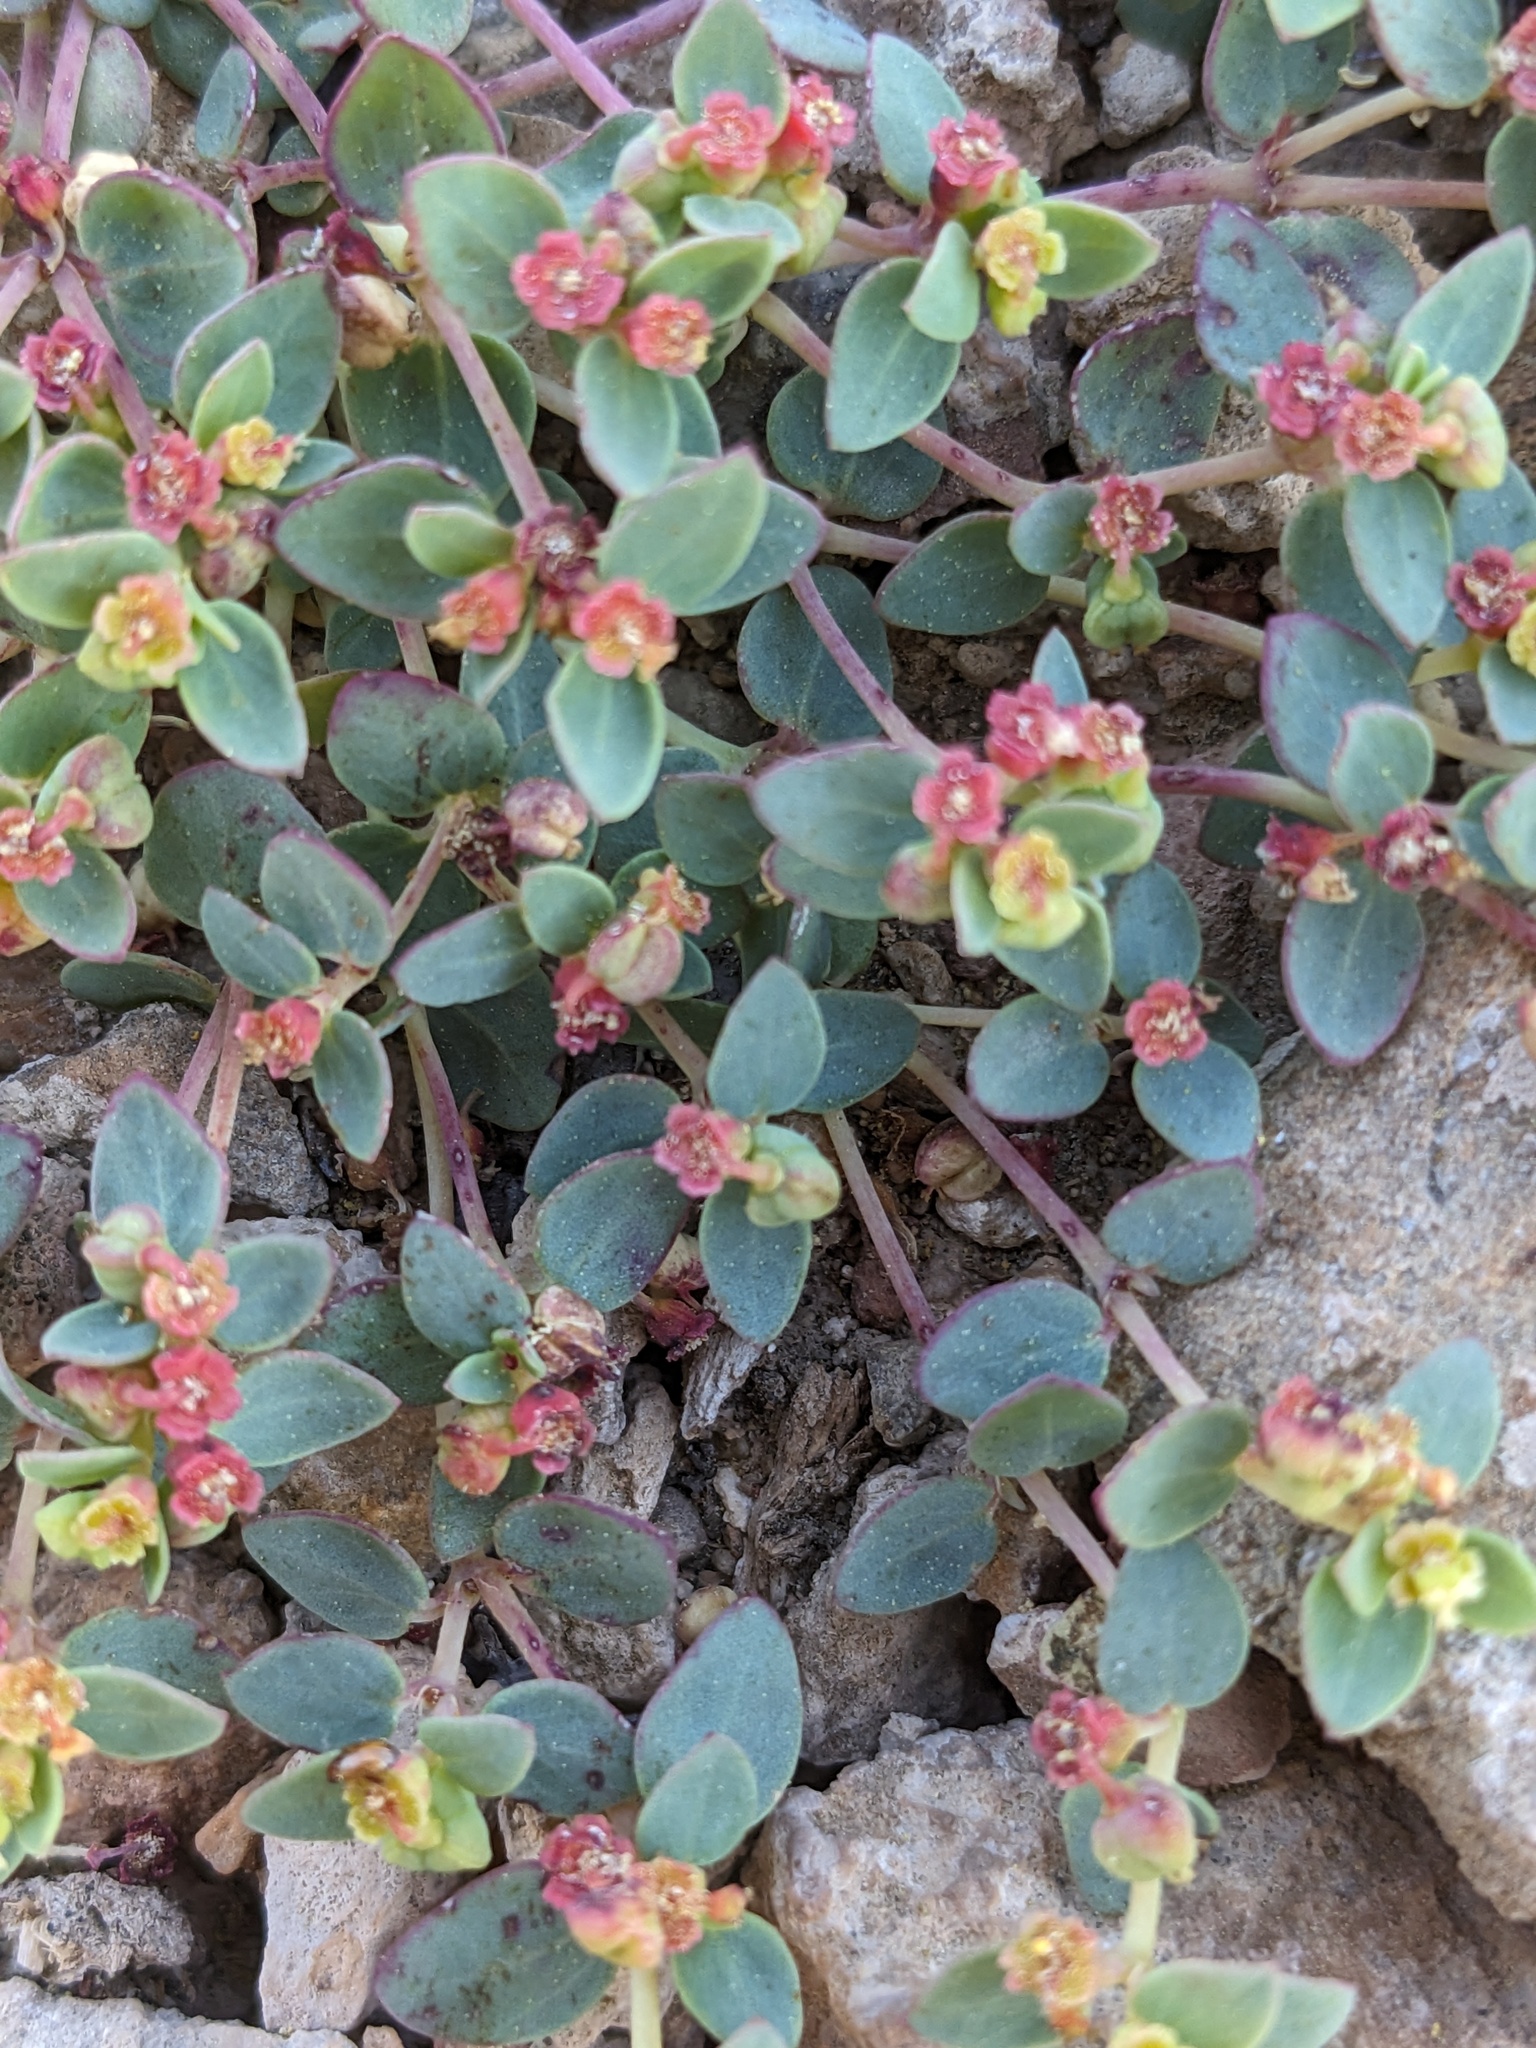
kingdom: Plantae
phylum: Tracheophyta
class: Magnoliopsida
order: Malpighiales
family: Euphorbiaceae
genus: Euphorbia
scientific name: Euphorbia fendleri
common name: Fendler's euphorbia
